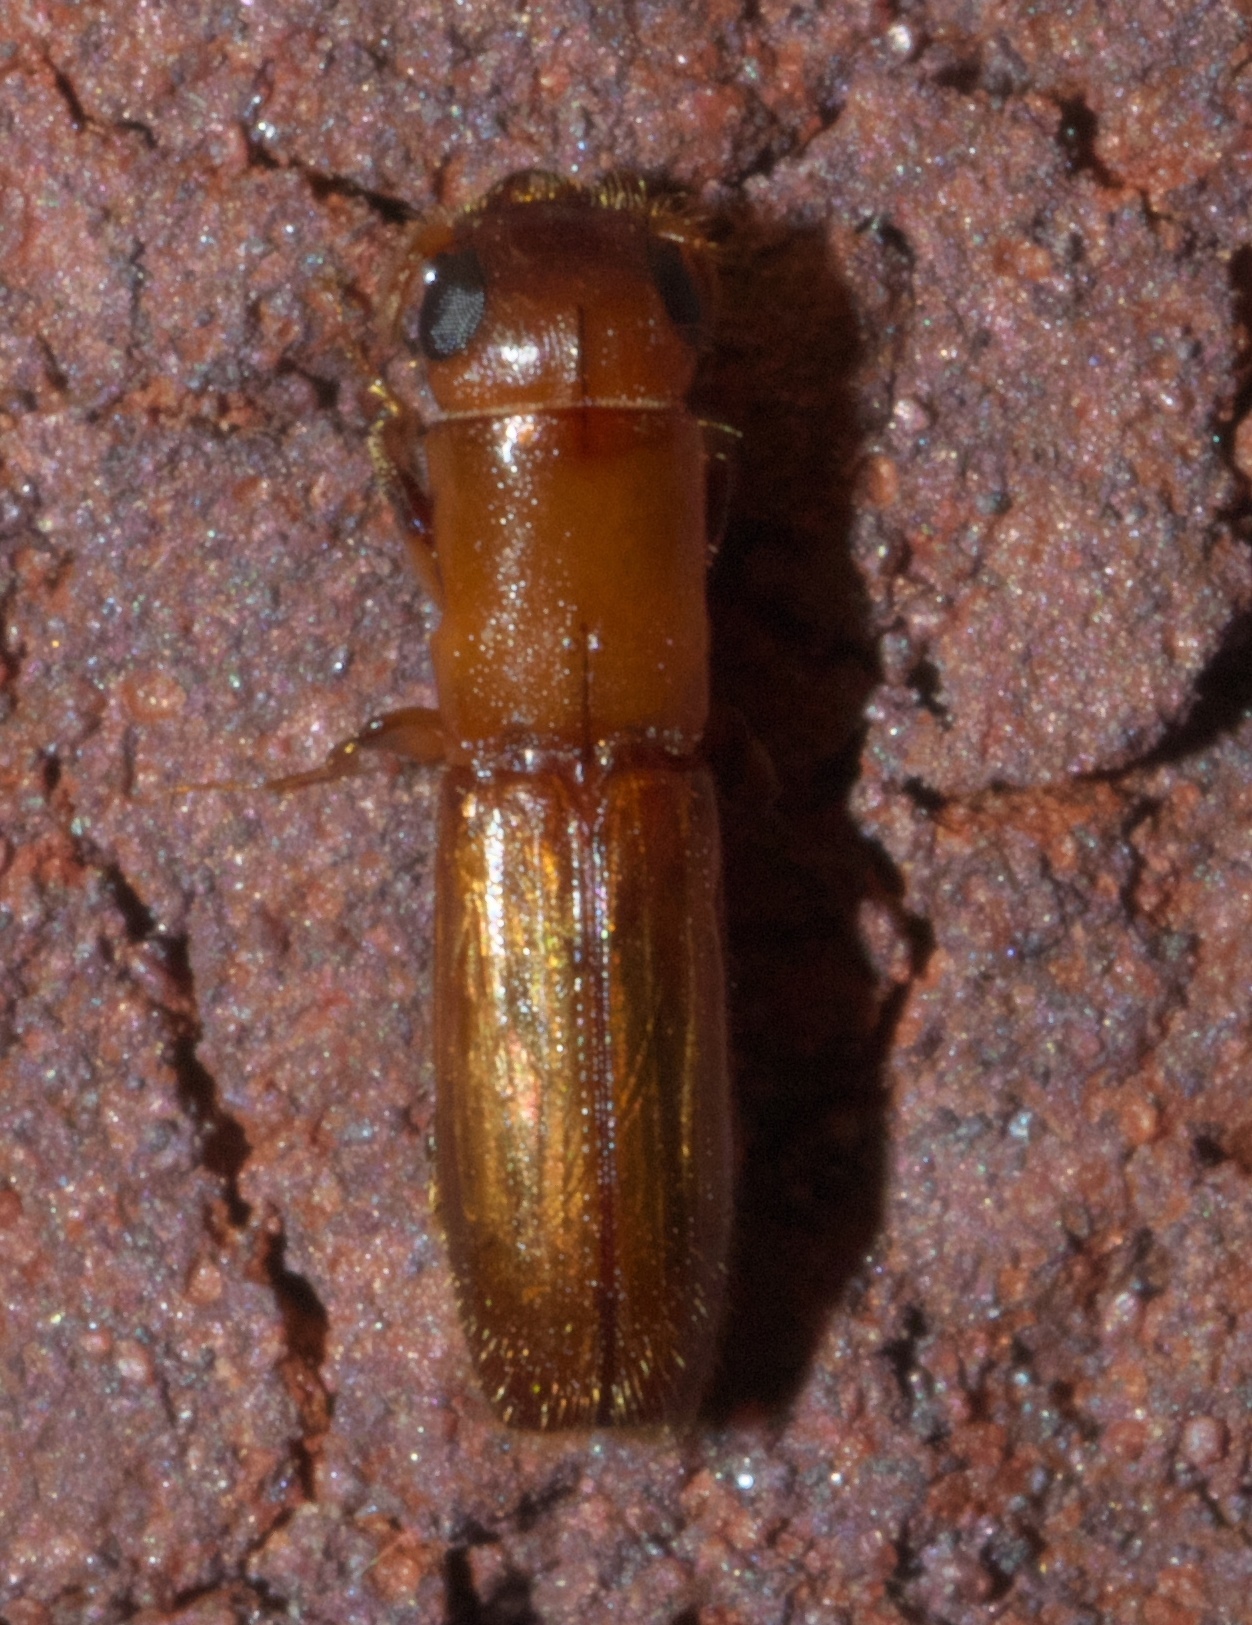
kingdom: Animalia
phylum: Arthropoda
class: Insecta
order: Coleoptera
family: Curculionidae
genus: Euplatypus
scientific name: Euplatypus compositus
